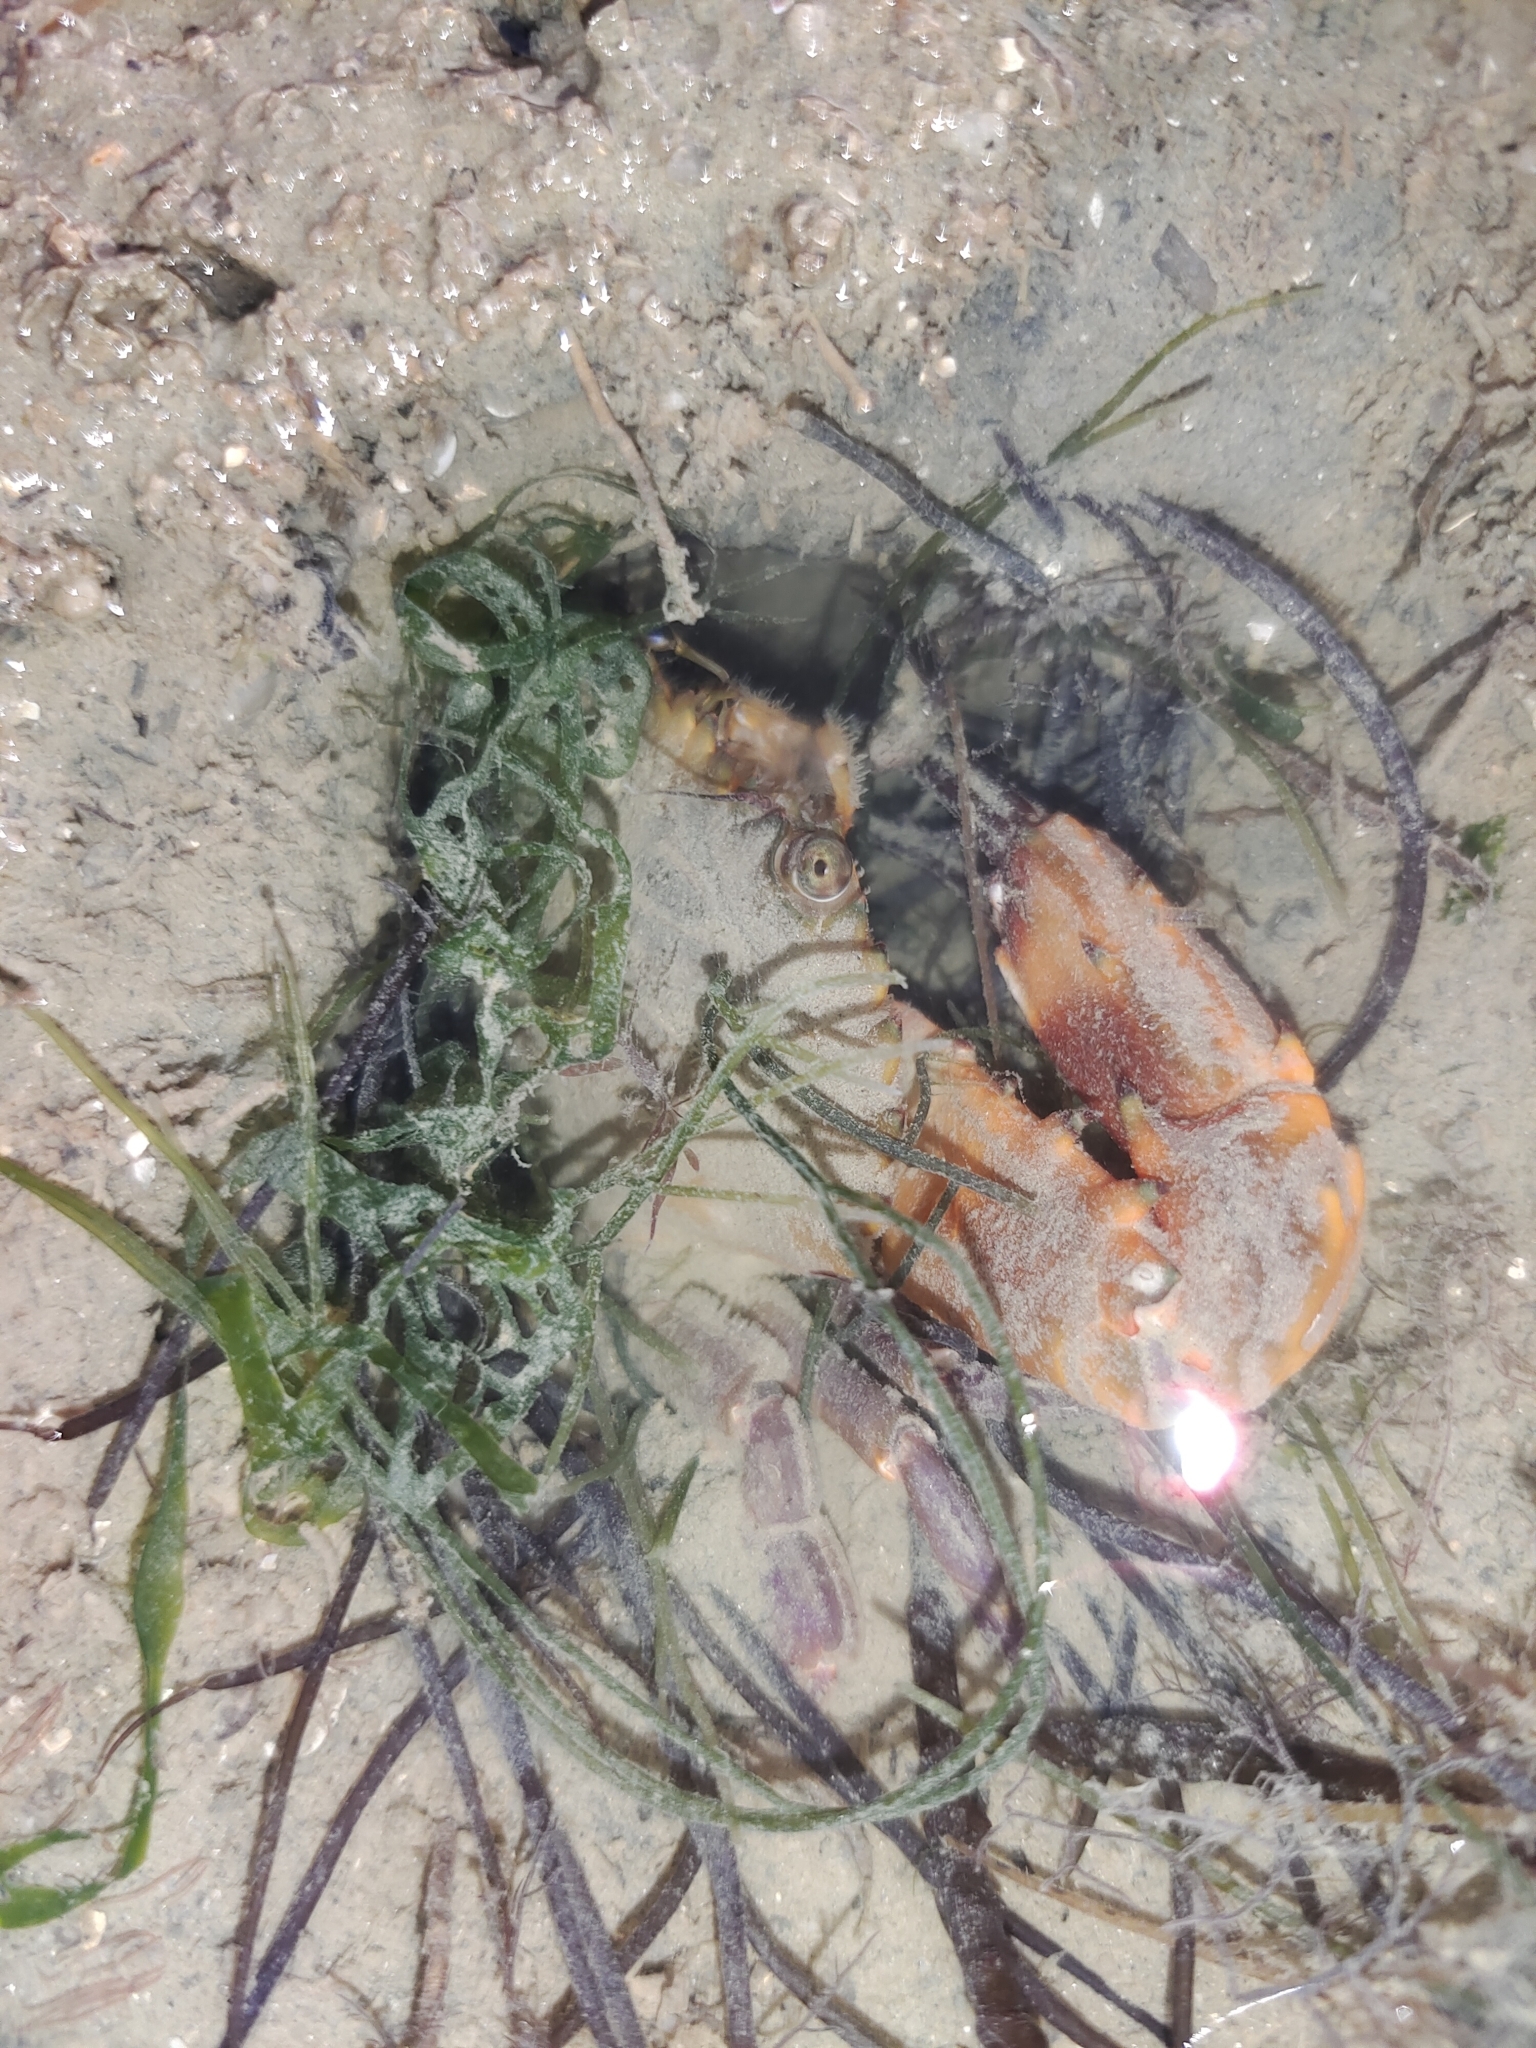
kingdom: Animalia
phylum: Arthropoda
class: Malacostraca
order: Decapoda
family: Portunidae
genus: Charybdis
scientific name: Charybdis hellerii
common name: Spiny hands
